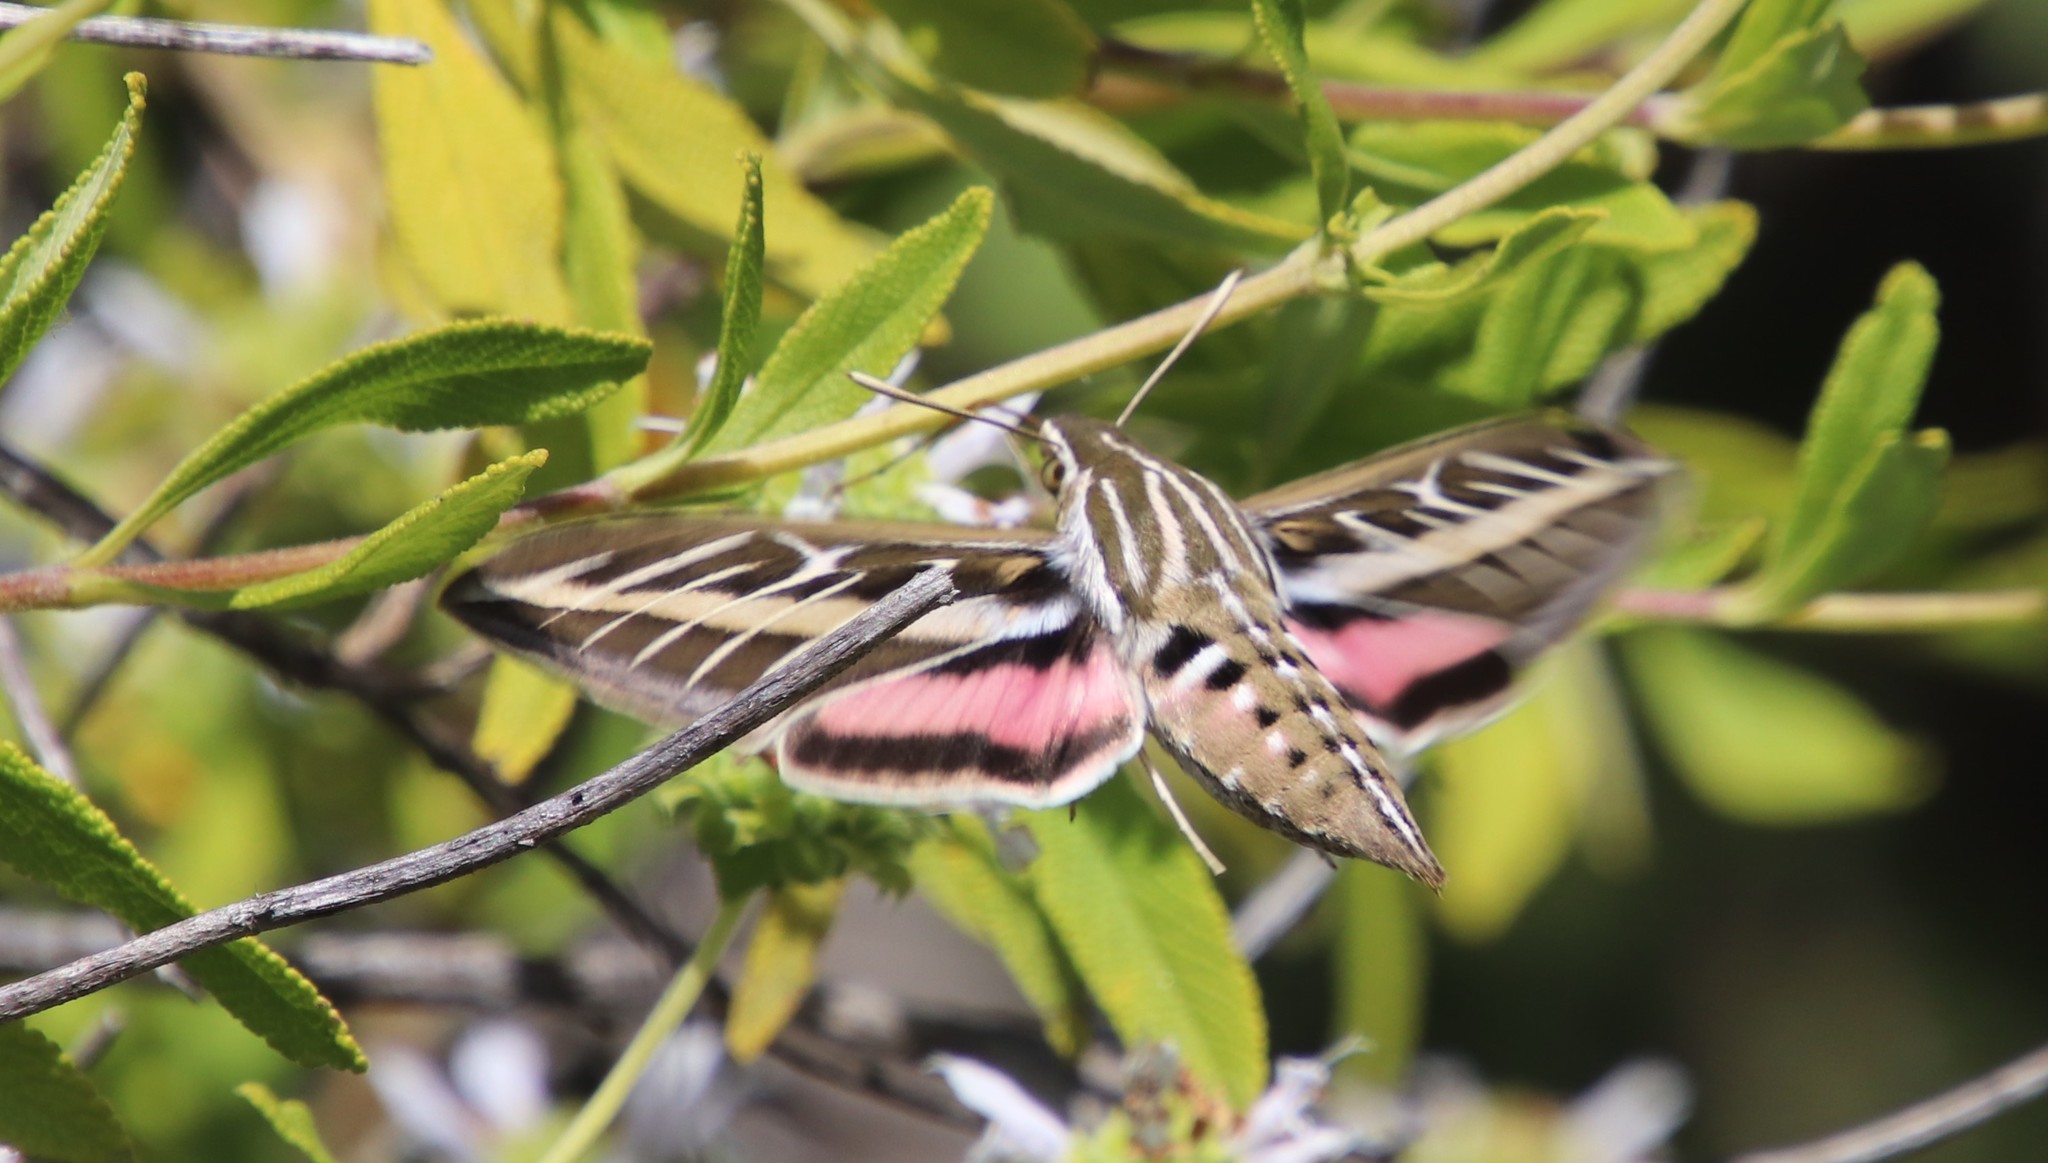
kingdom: Animalia
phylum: Arthropoda
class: Insecta
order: Lepidoptera
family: Sphingidae
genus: Hyles
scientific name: Hyles lineata
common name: White-lined sphinx
